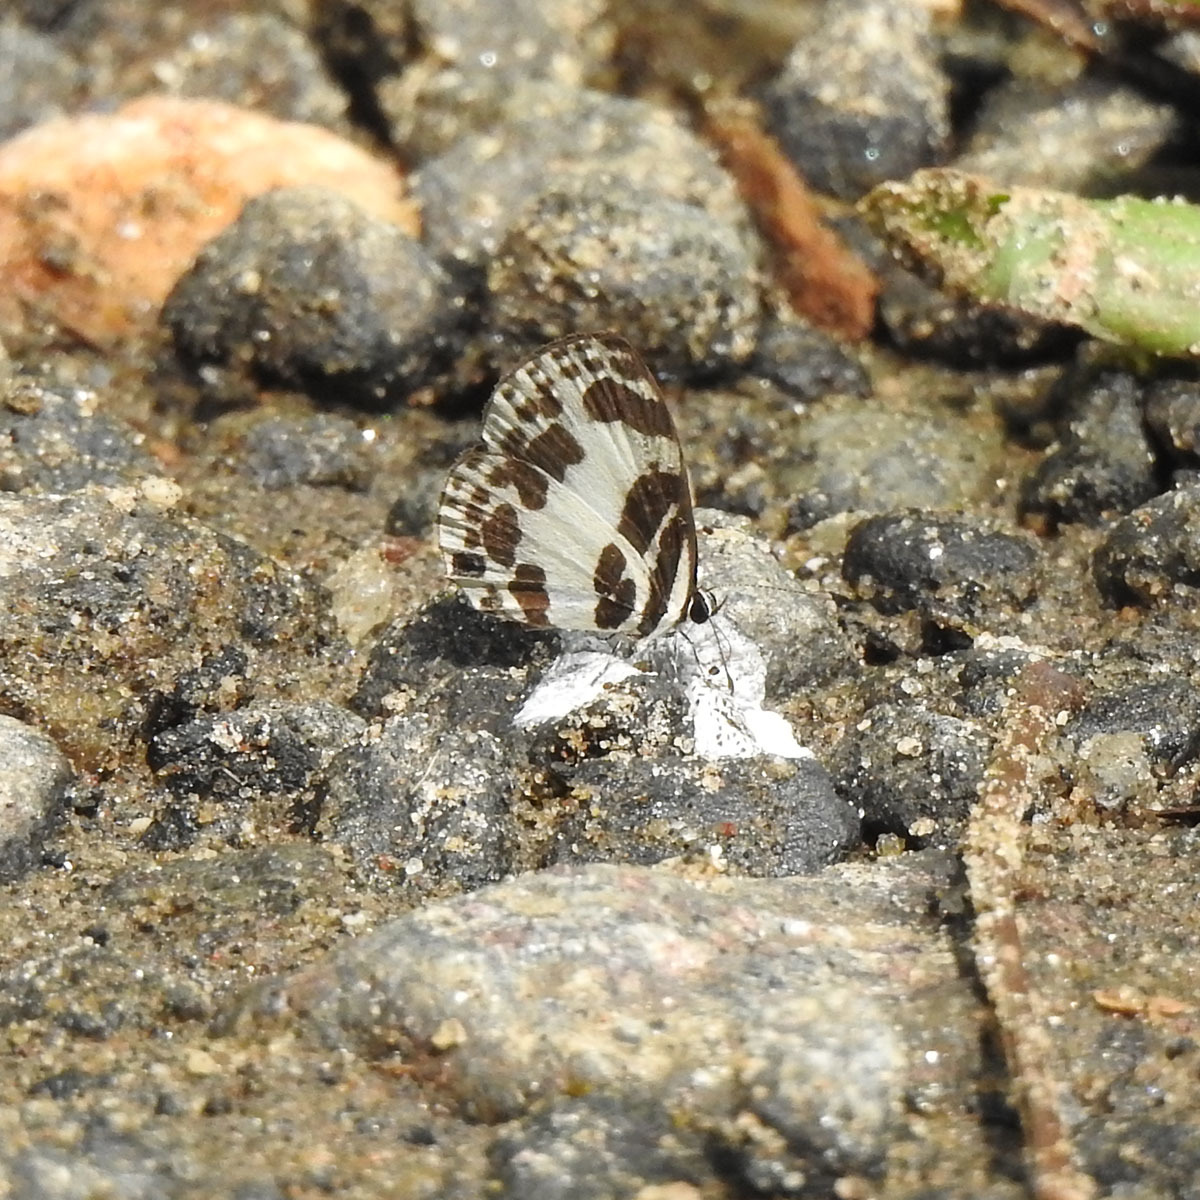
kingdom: Animalia
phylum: Arthropoda
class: Insecta
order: Lepidoptera
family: Lycaenidae
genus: Discolampa
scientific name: Discolampa ethion
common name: Banded blue pierrot
